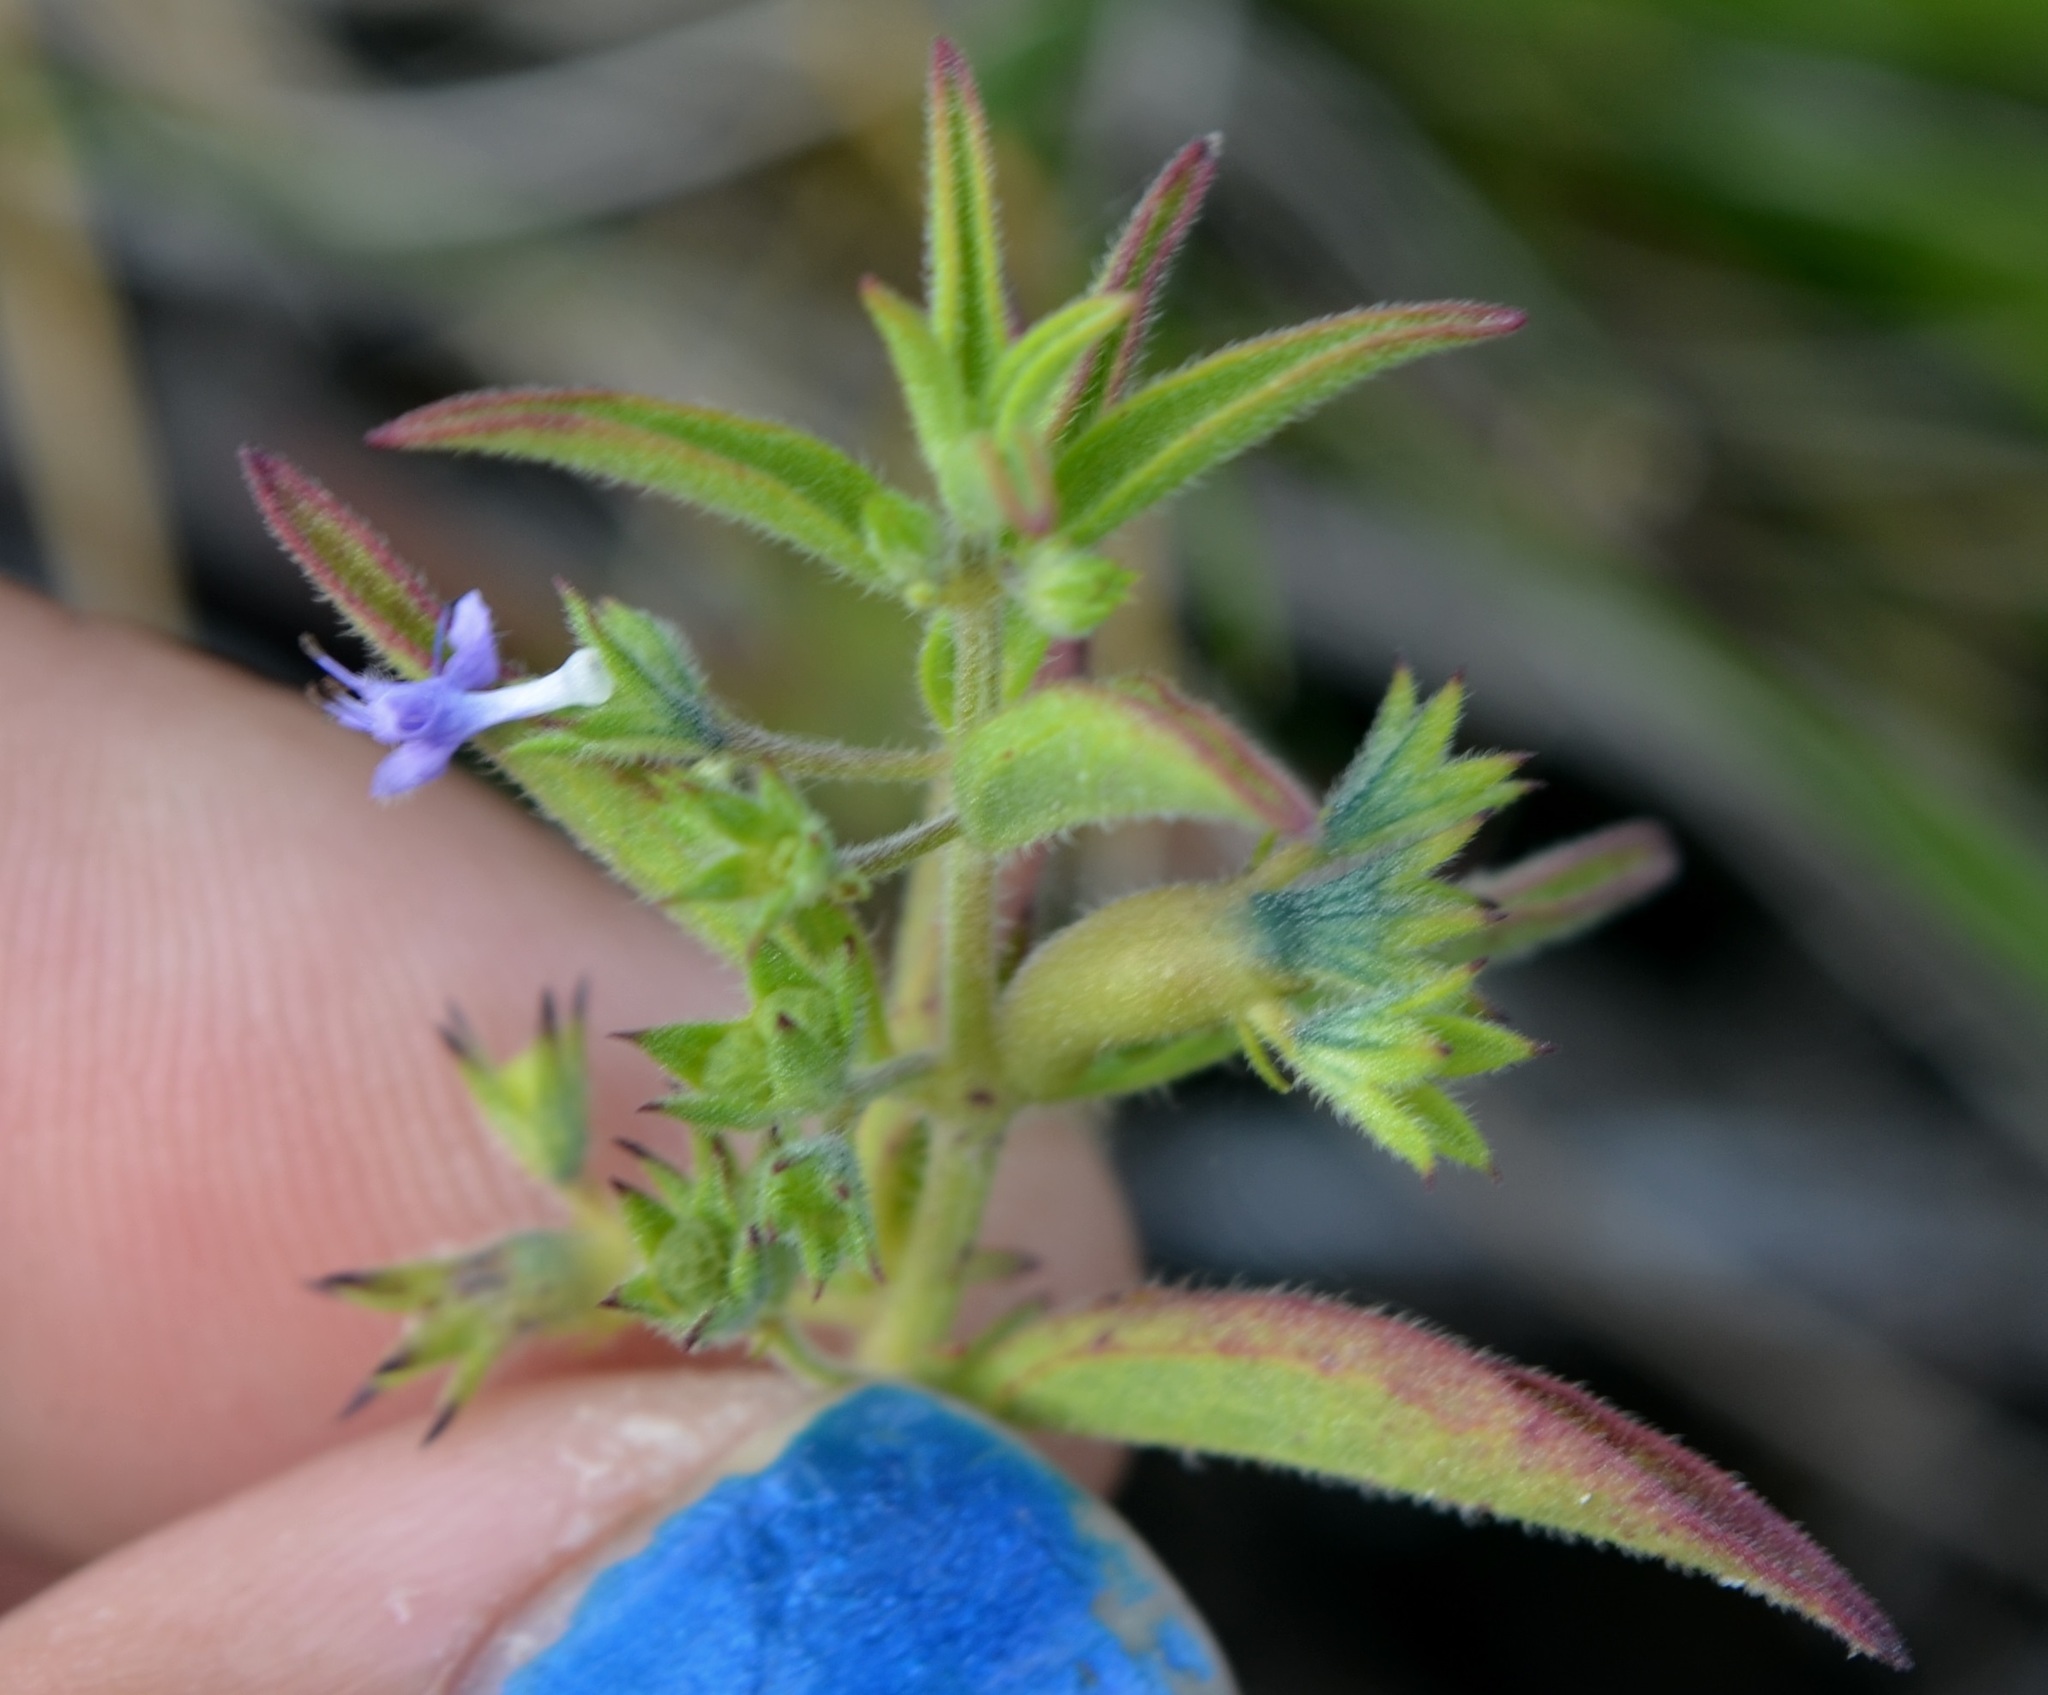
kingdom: Plantae
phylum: Tracheophyta
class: Magnoliopsida
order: Lamiales
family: Lamiaceae
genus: Trichostema
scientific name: Trichostema brachiatum
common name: False pennyroyal
